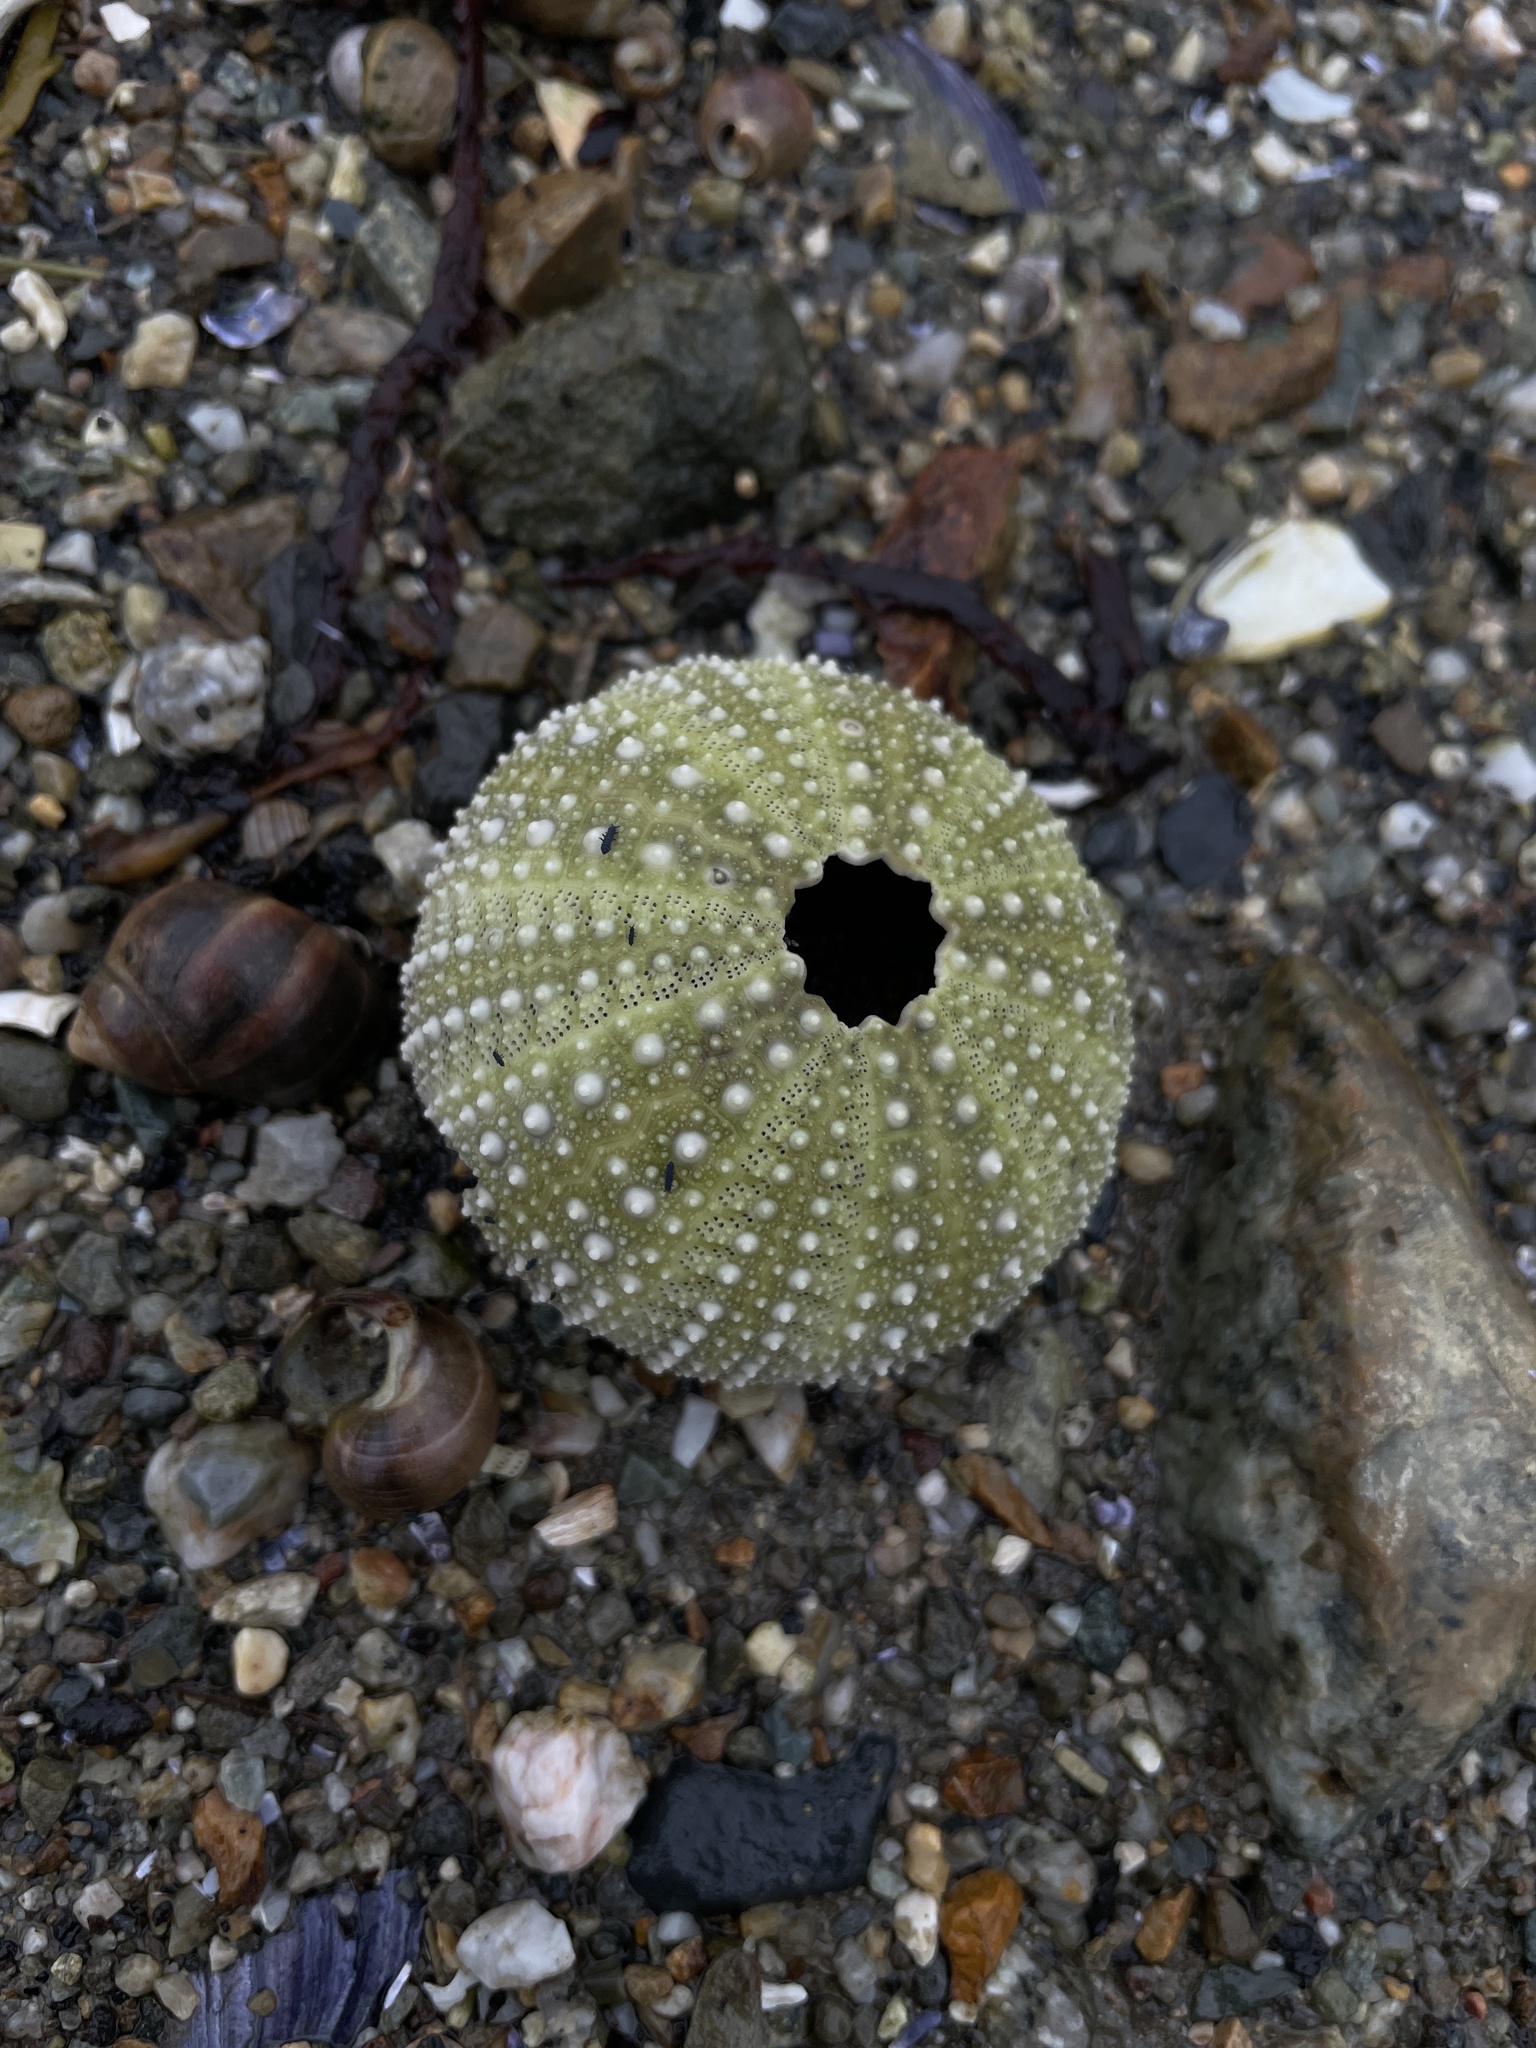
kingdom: Animalia
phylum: Echinodermata
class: Echinoidea
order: Camarodonta
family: Strongylocentrotidae
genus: Strongylocentrotus
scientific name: Strongylocentrotus droebachiensis
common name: Northern sea urchin
